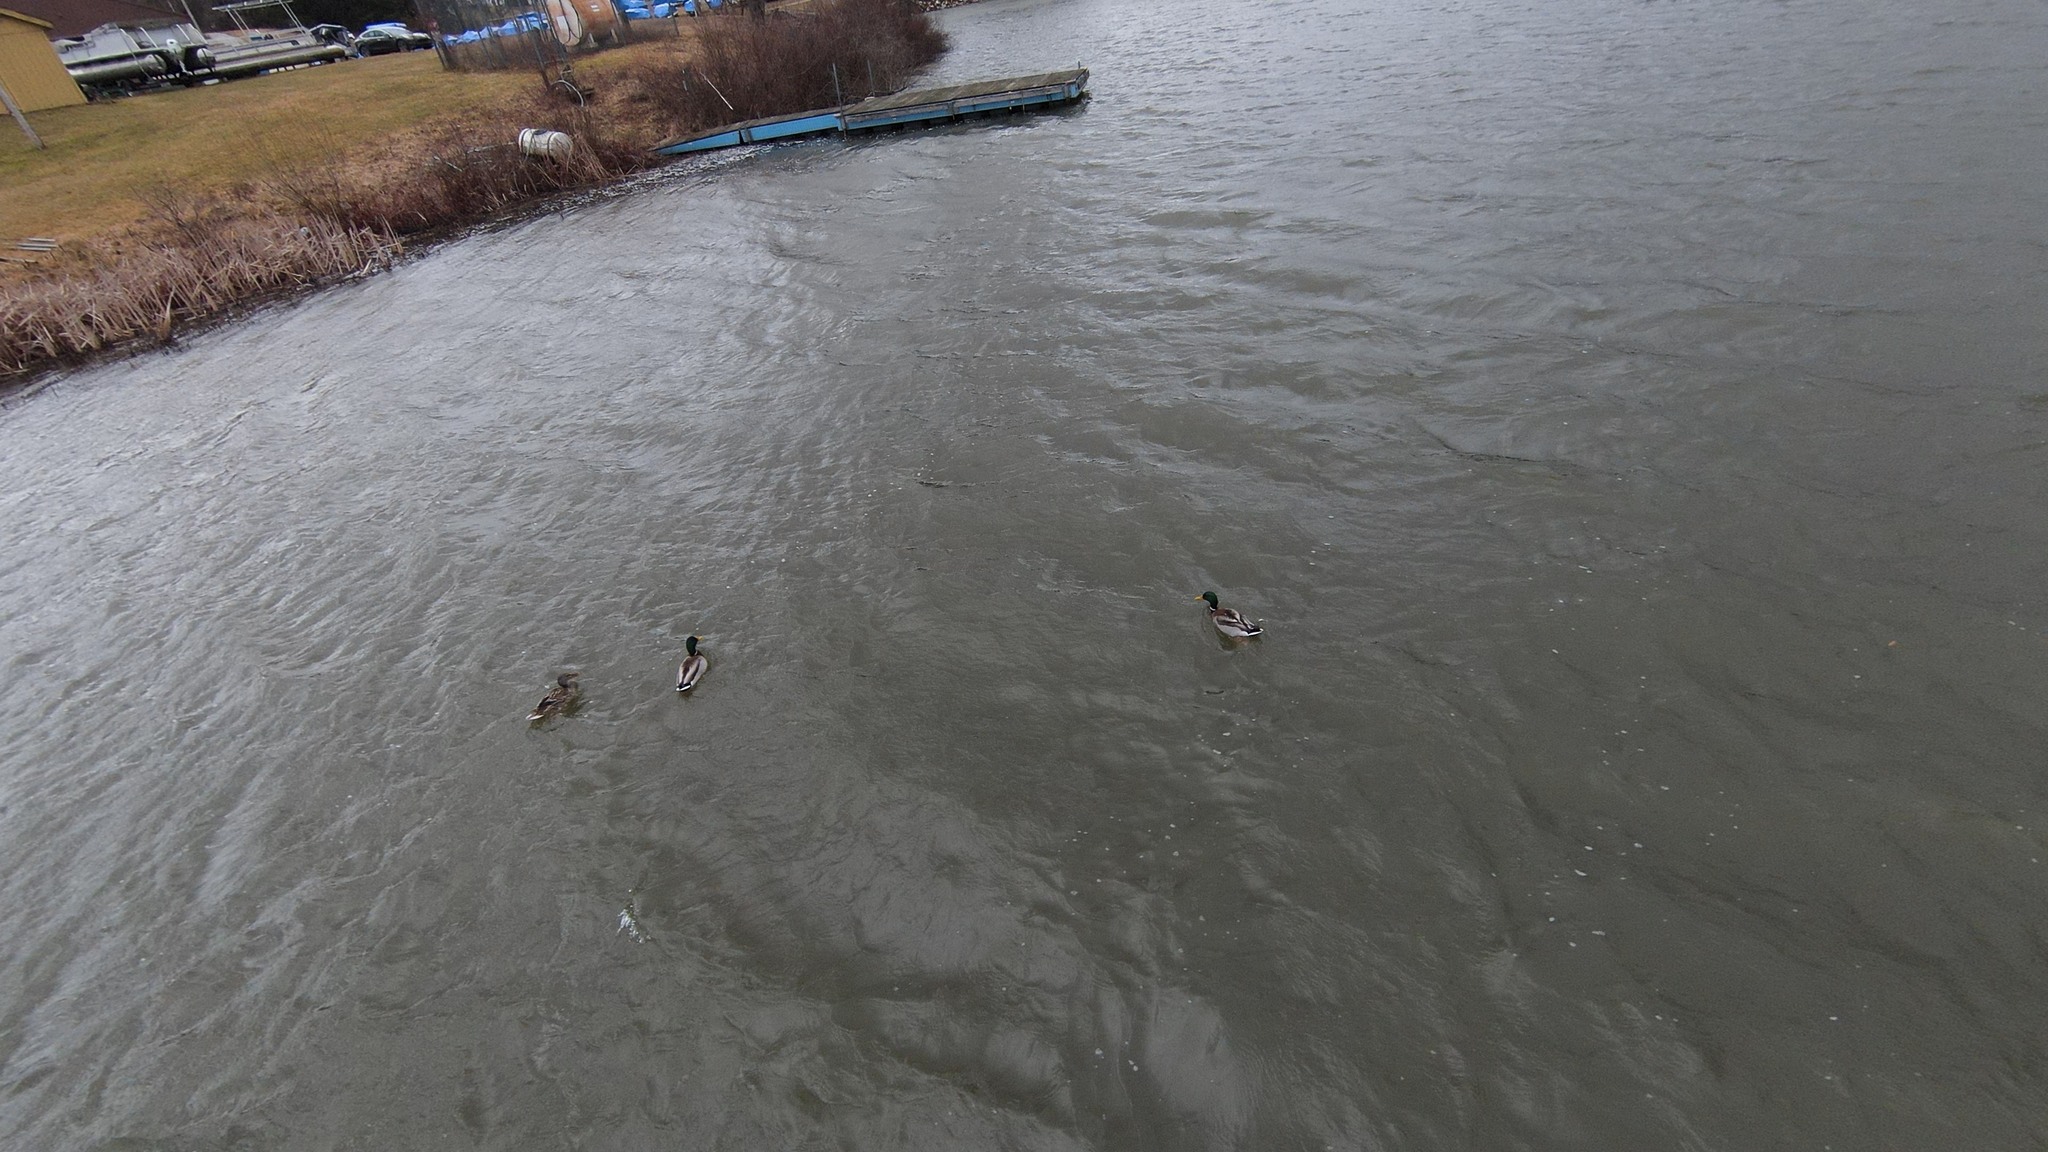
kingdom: Animalia
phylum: Chordata
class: Aves
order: Anseriformes
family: Anatidae
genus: Anas
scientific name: Anas platyrhynchos
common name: Mallard
